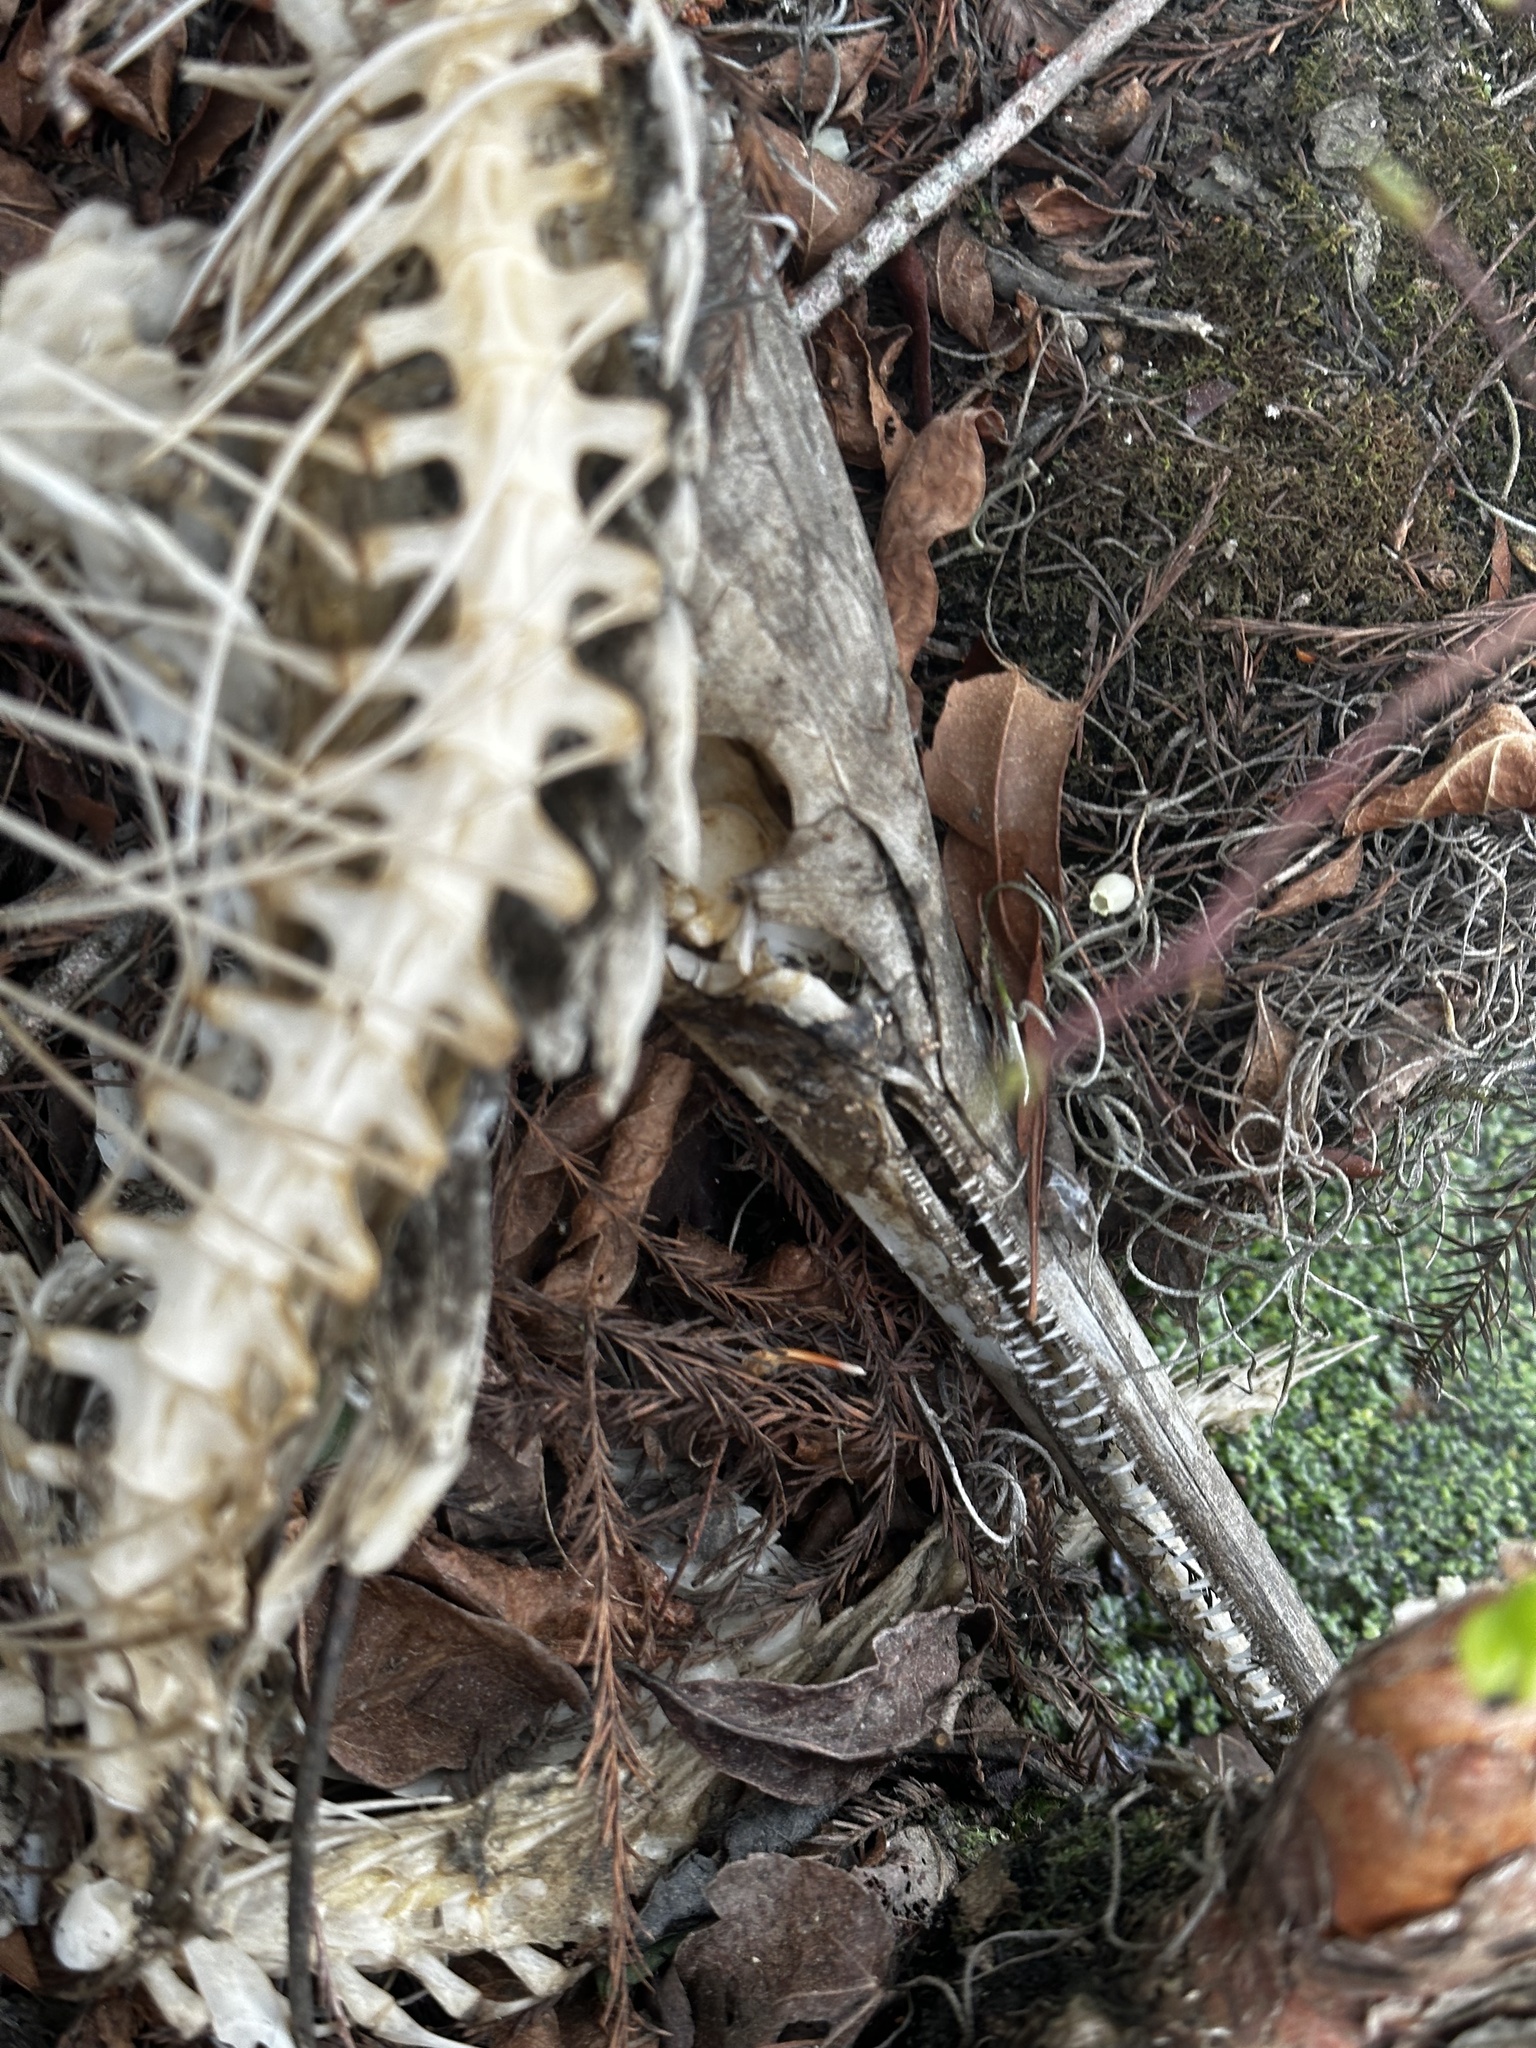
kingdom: Animalia
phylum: Chordata
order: Lepisosteiformes
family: Lepisosteidae
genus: Lepisosteus
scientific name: Lepisosteus osseus
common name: Longnose gar
